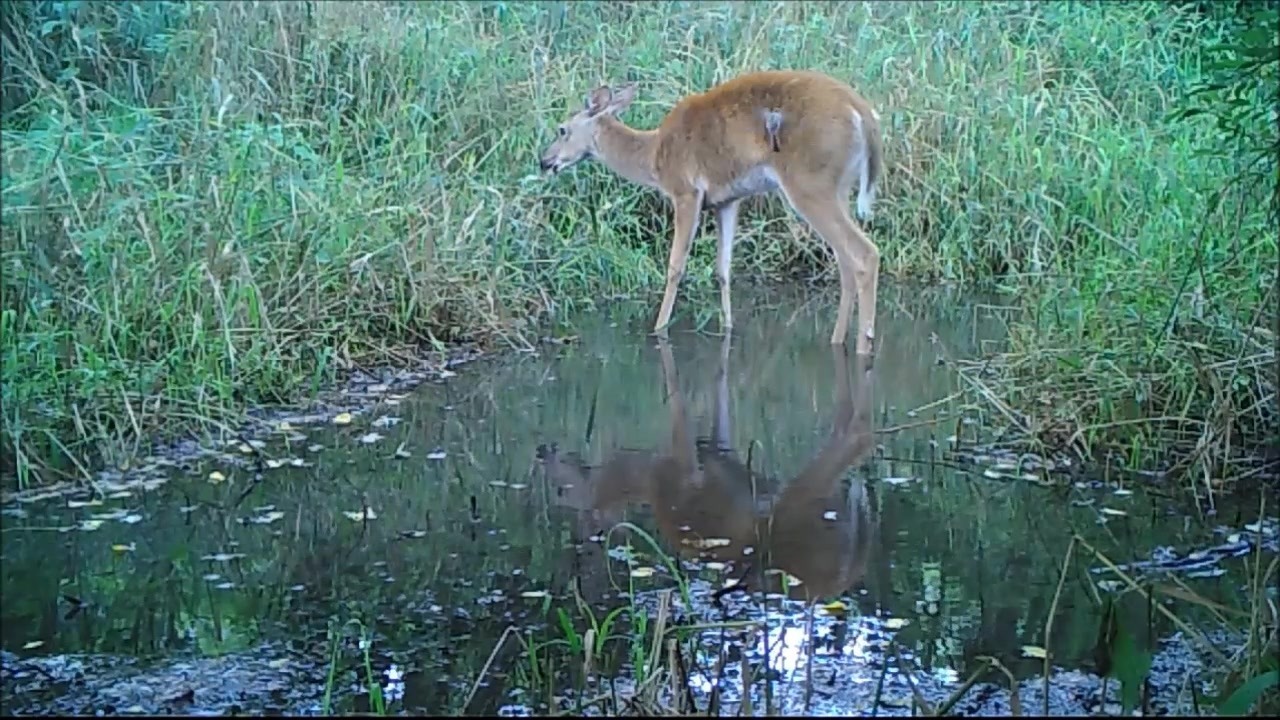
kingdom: Animalia
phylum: Chordata
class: Aves
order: Passeriformes
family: Tyrannidae
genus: Sayornis
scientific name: Sayornis phoebe
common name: Eastern phoebe
